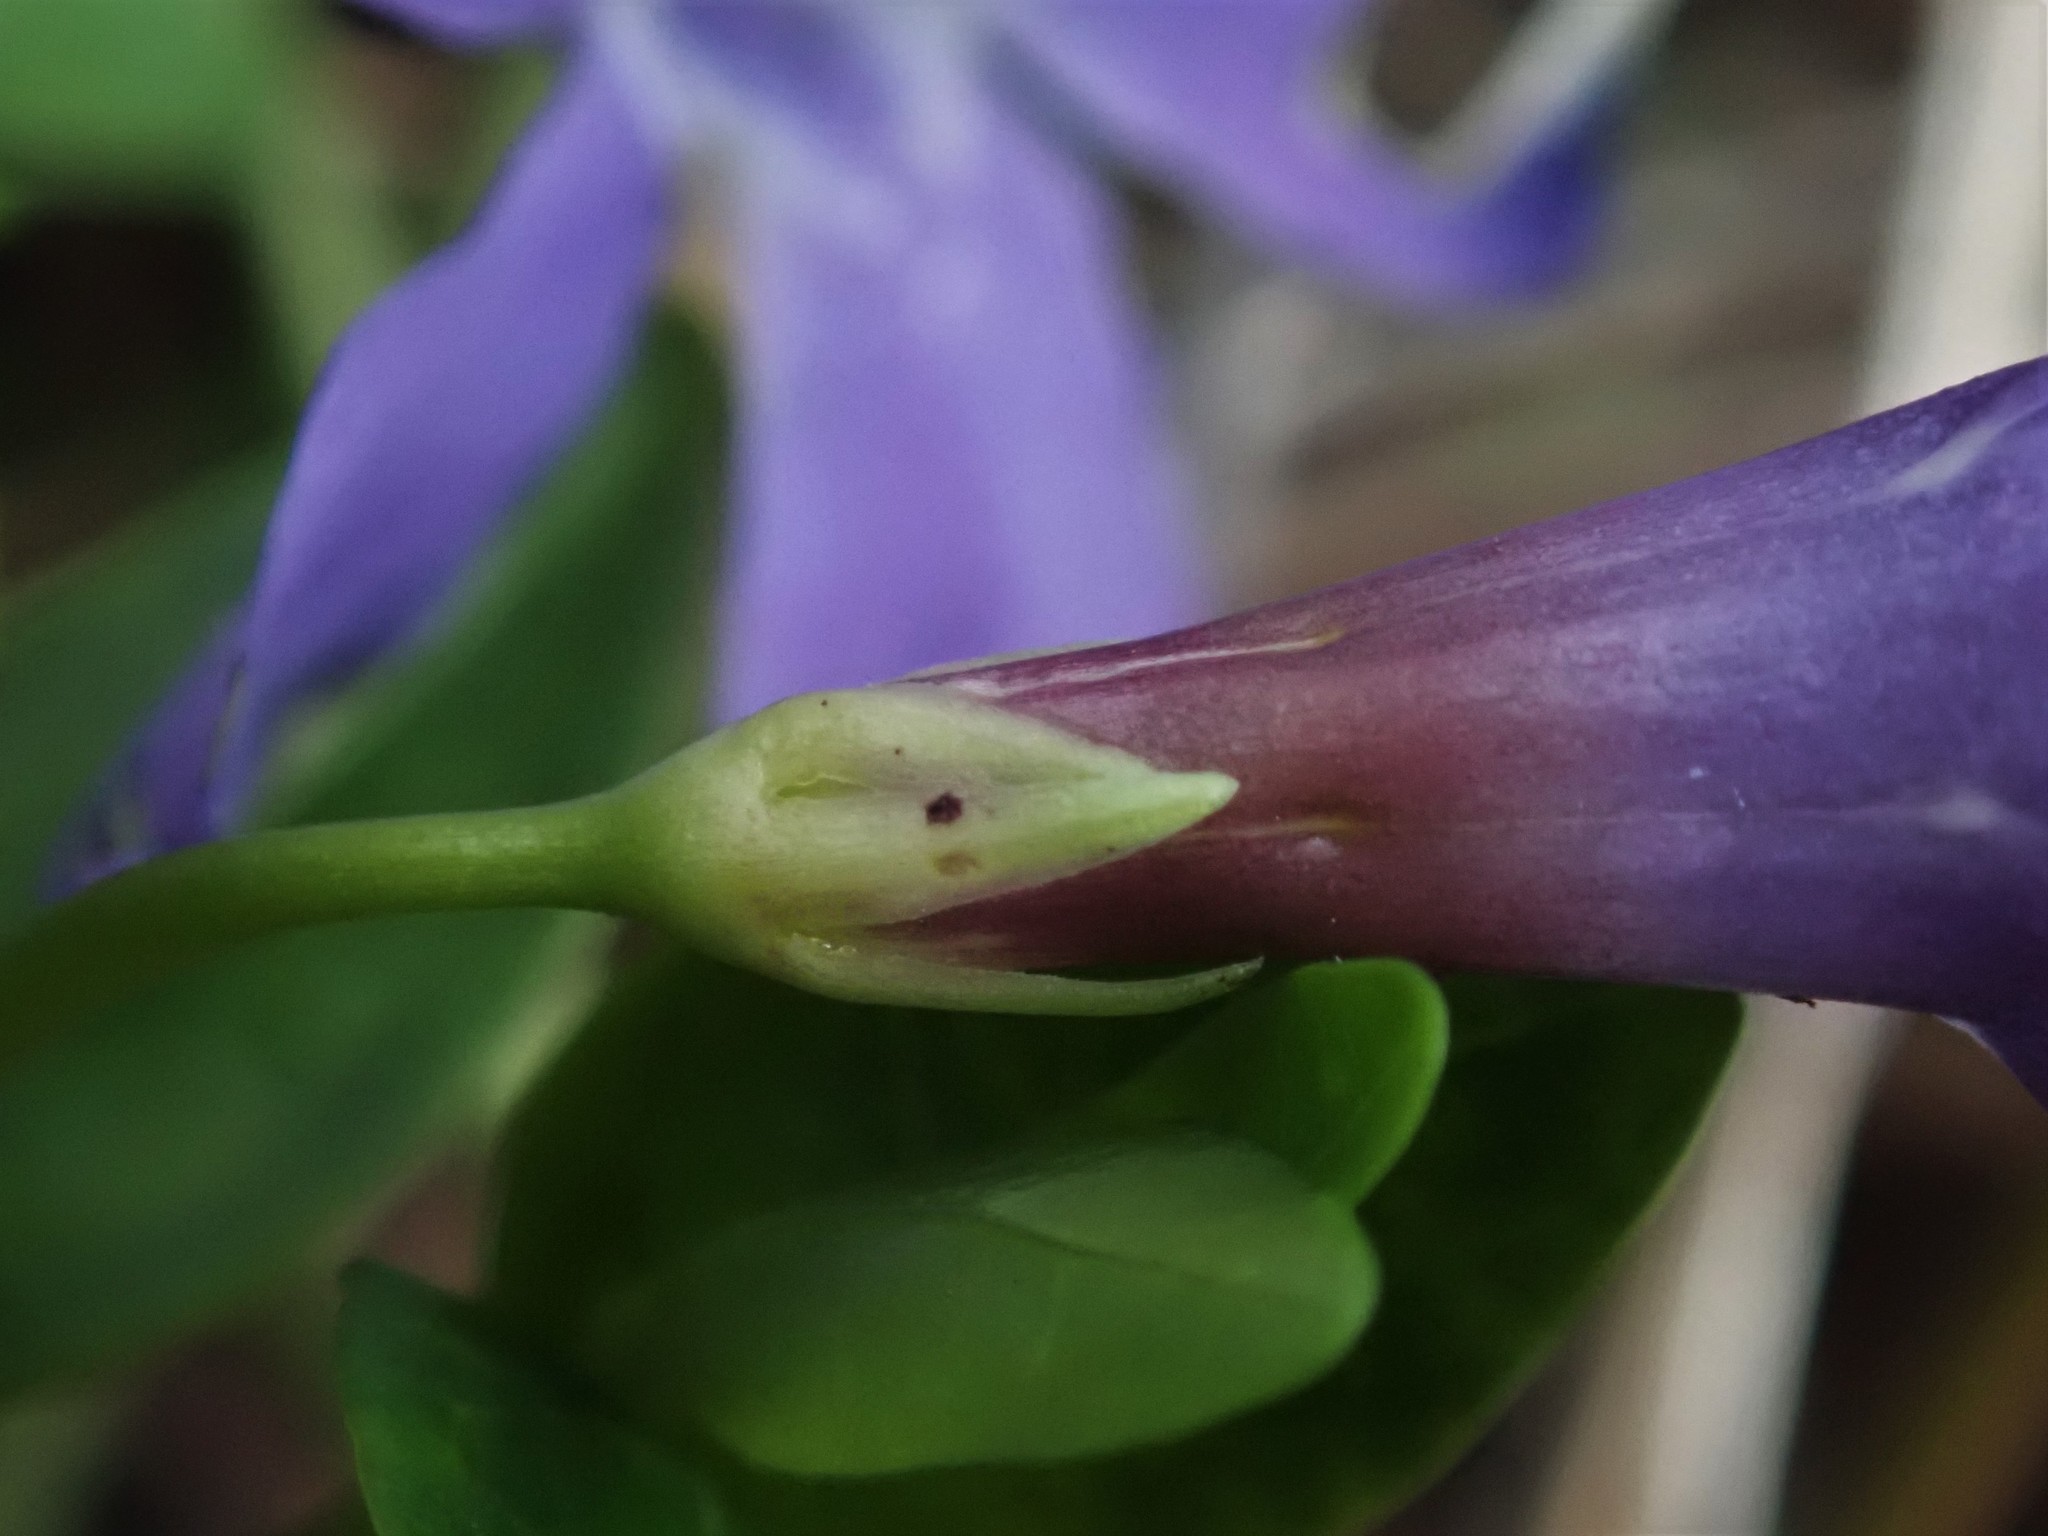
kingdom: Plantae
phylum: Tracheophyta
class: Magnoliopsida
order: Gentianales
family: Apocynaceae
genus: Vinca
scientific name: Vinca minor
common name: Lesser periwinkle
